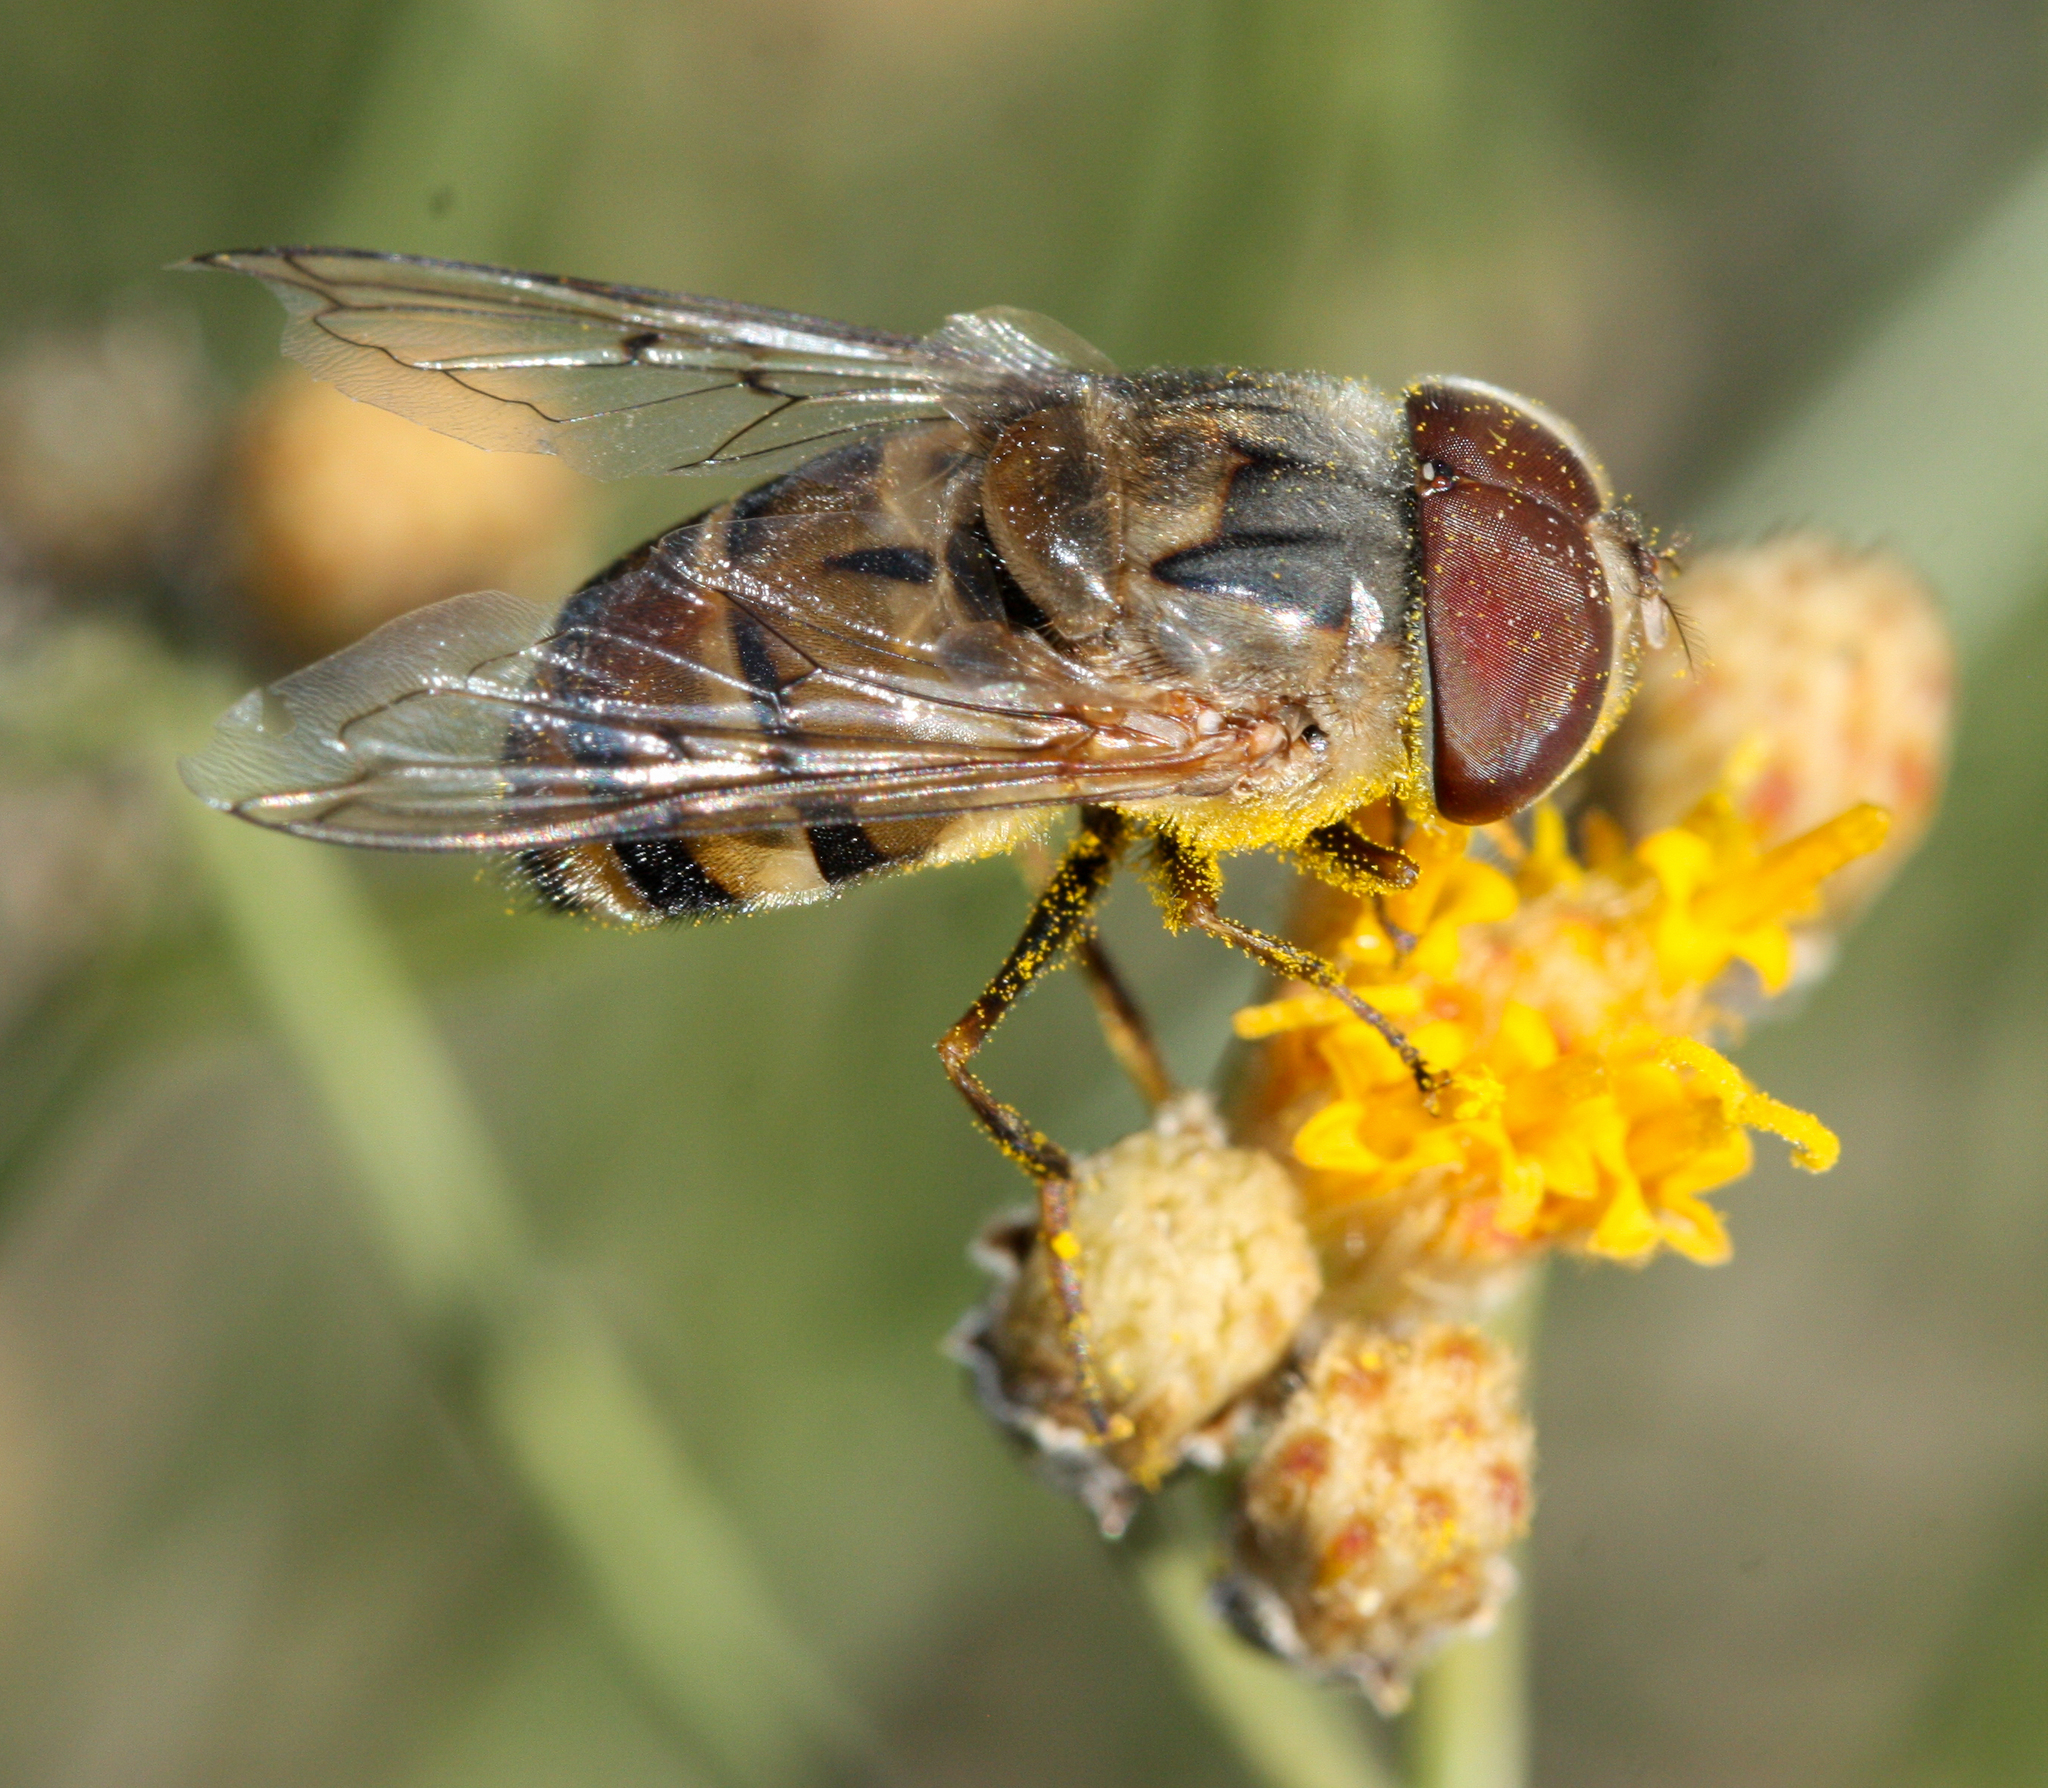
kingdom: Animalia
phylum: Arthropoda
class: Insecta
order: Diptera
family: Syrphidae
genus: Copestylum
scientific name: Copestylum isabellina
